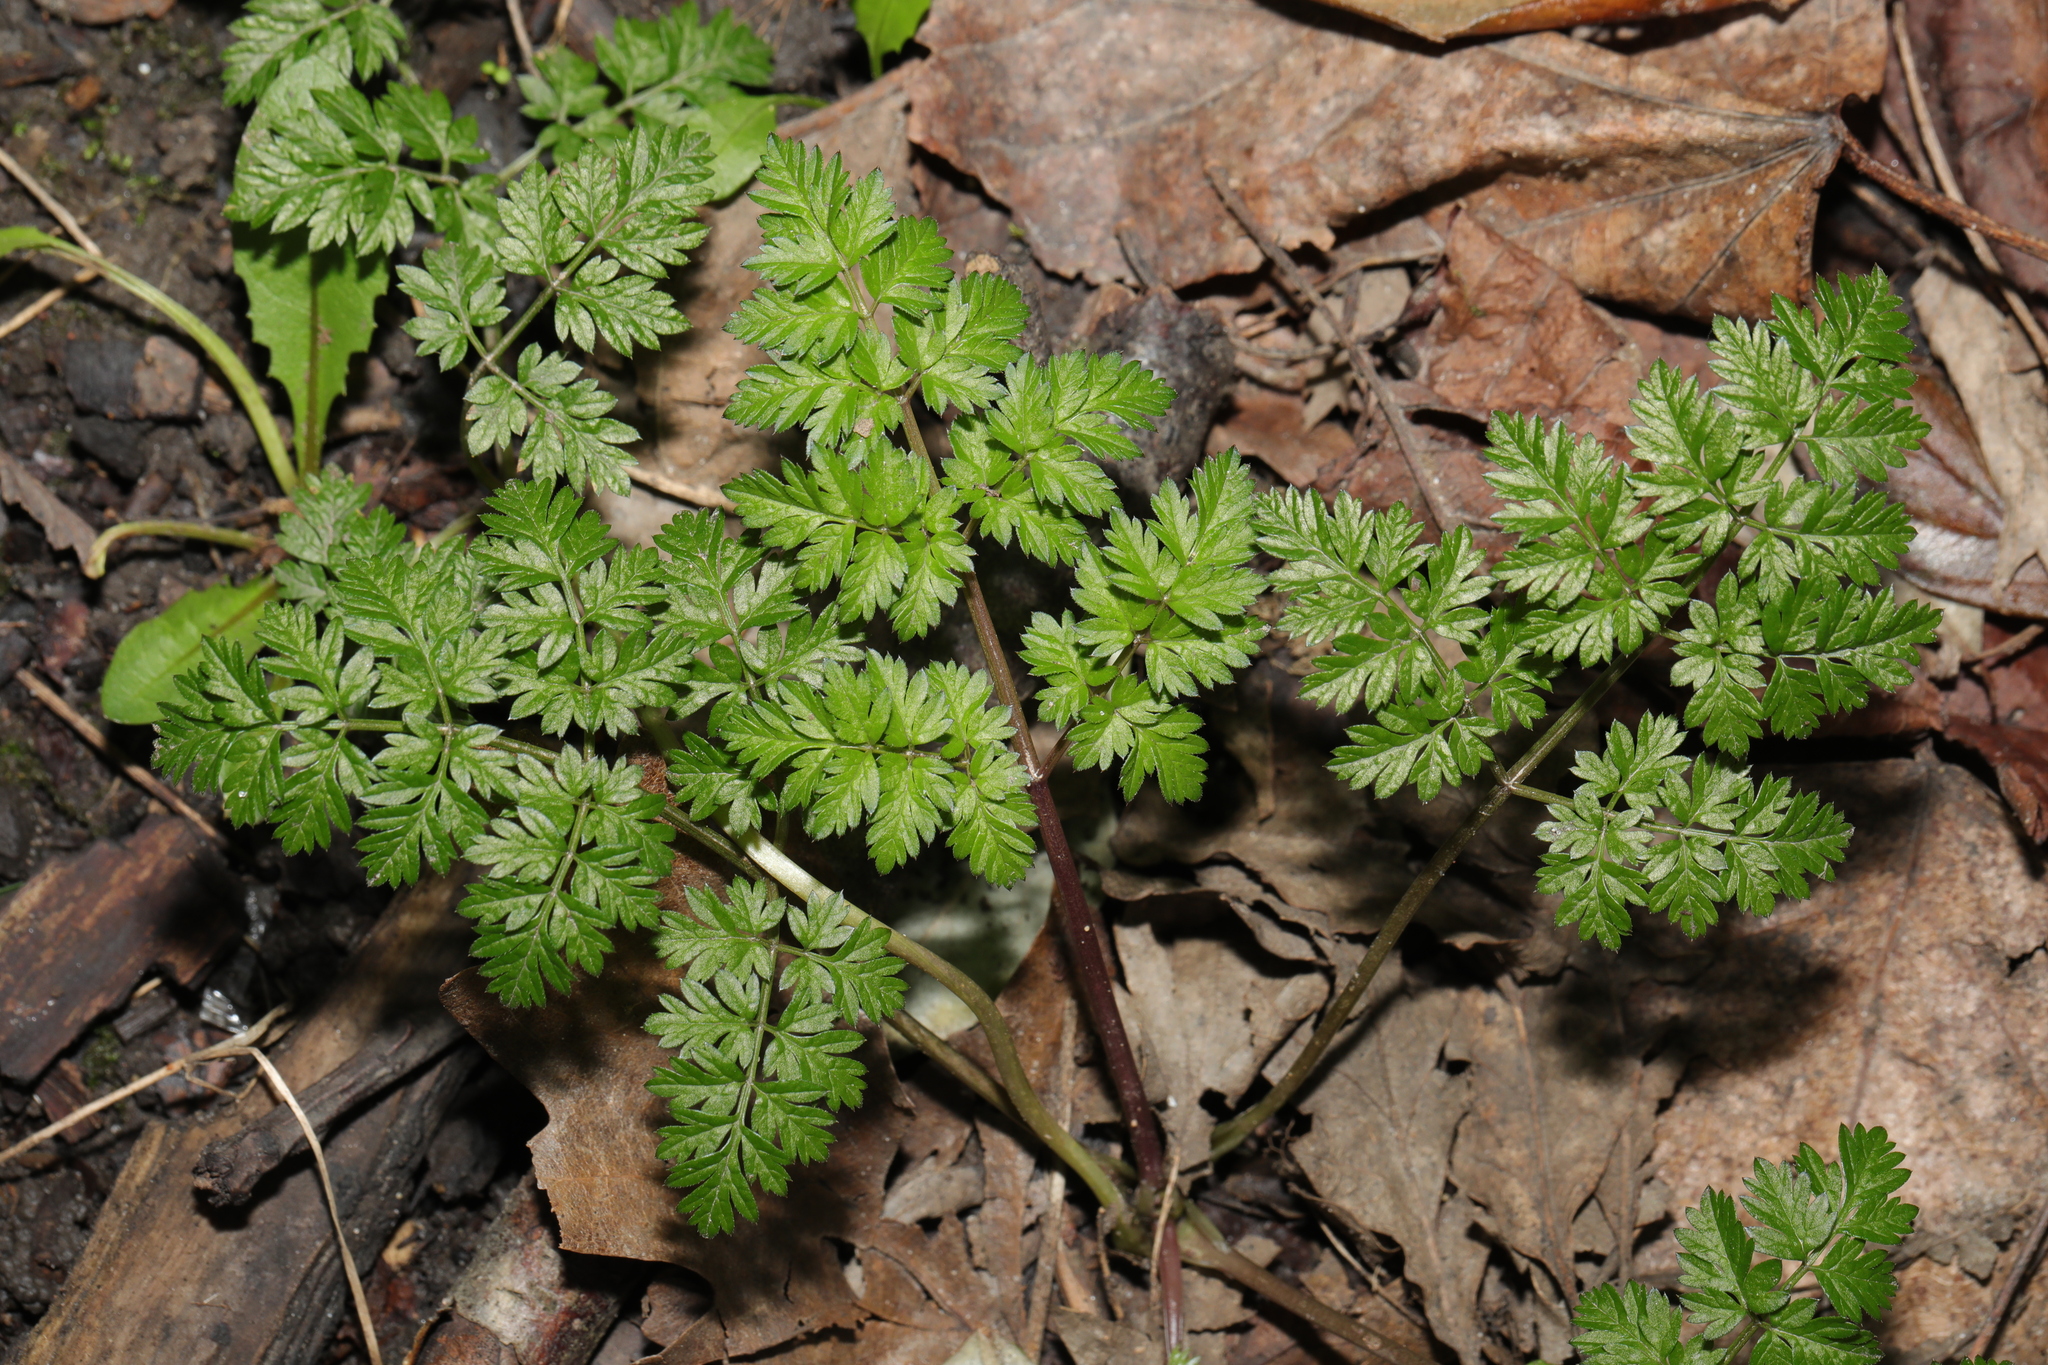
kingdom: Plantae
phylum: Tracheophyta
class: Magnoliopsida
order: Apiales
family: Apiaceae
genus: Anthriscus
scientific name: Anthriscus sylvestris
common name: Cow parsley
